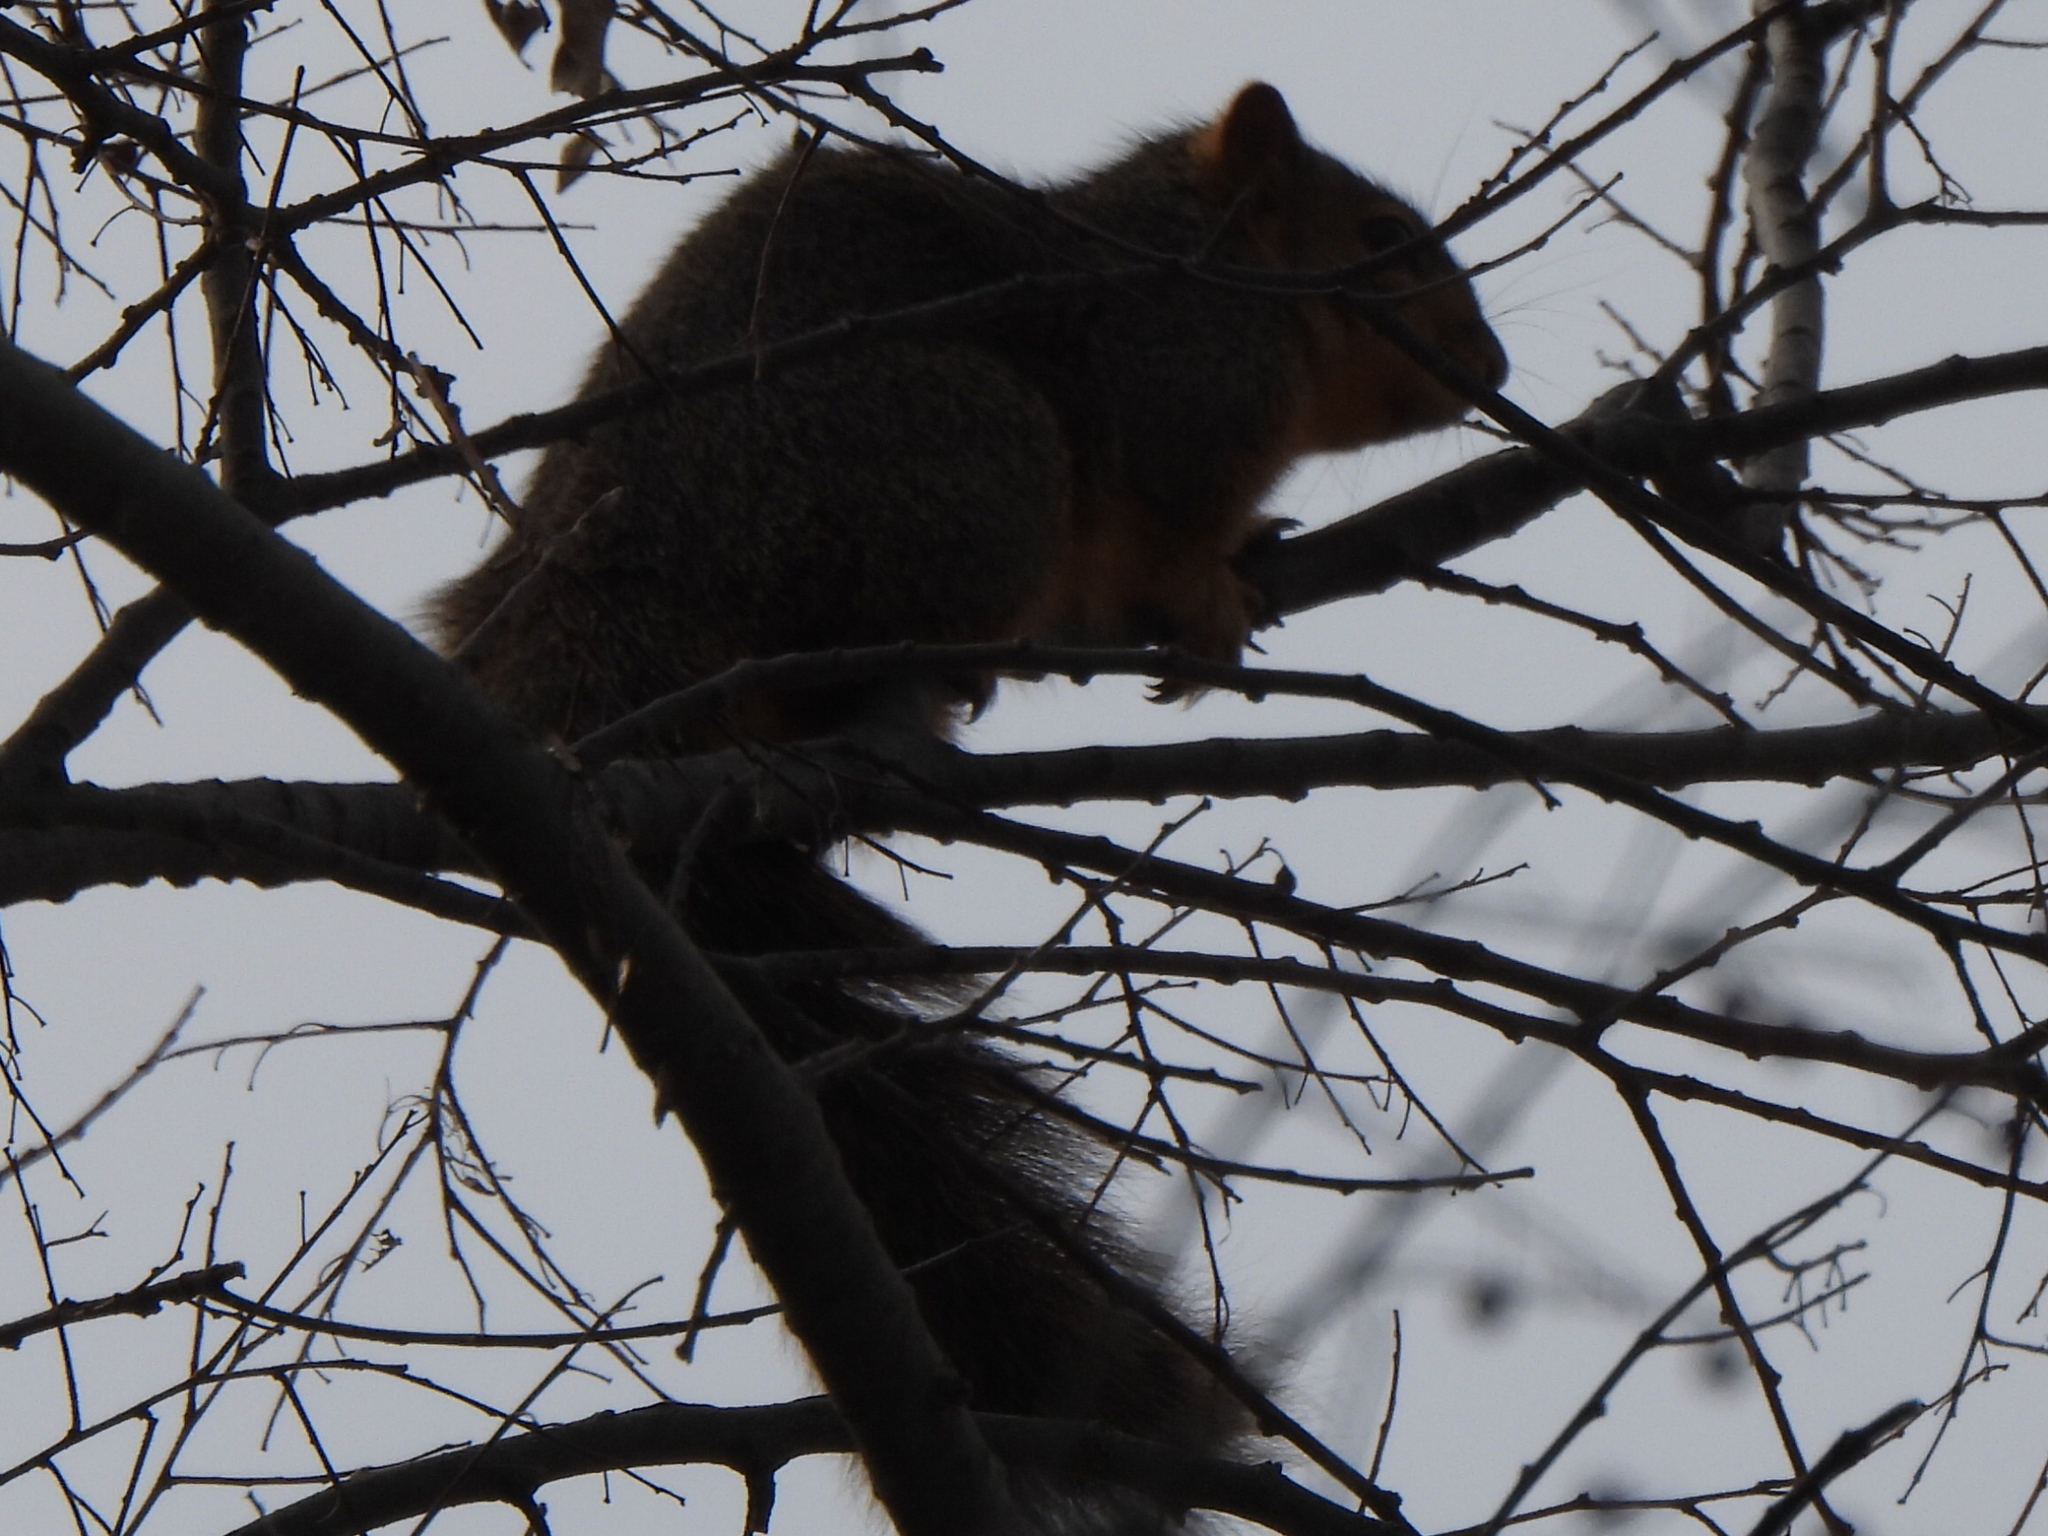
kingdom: Animalia
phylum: Chordata
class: Mammalia
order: Rodentia
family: Sciuridae
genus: Sciurus
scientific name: Sciurus niger
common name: Fox squirrel
